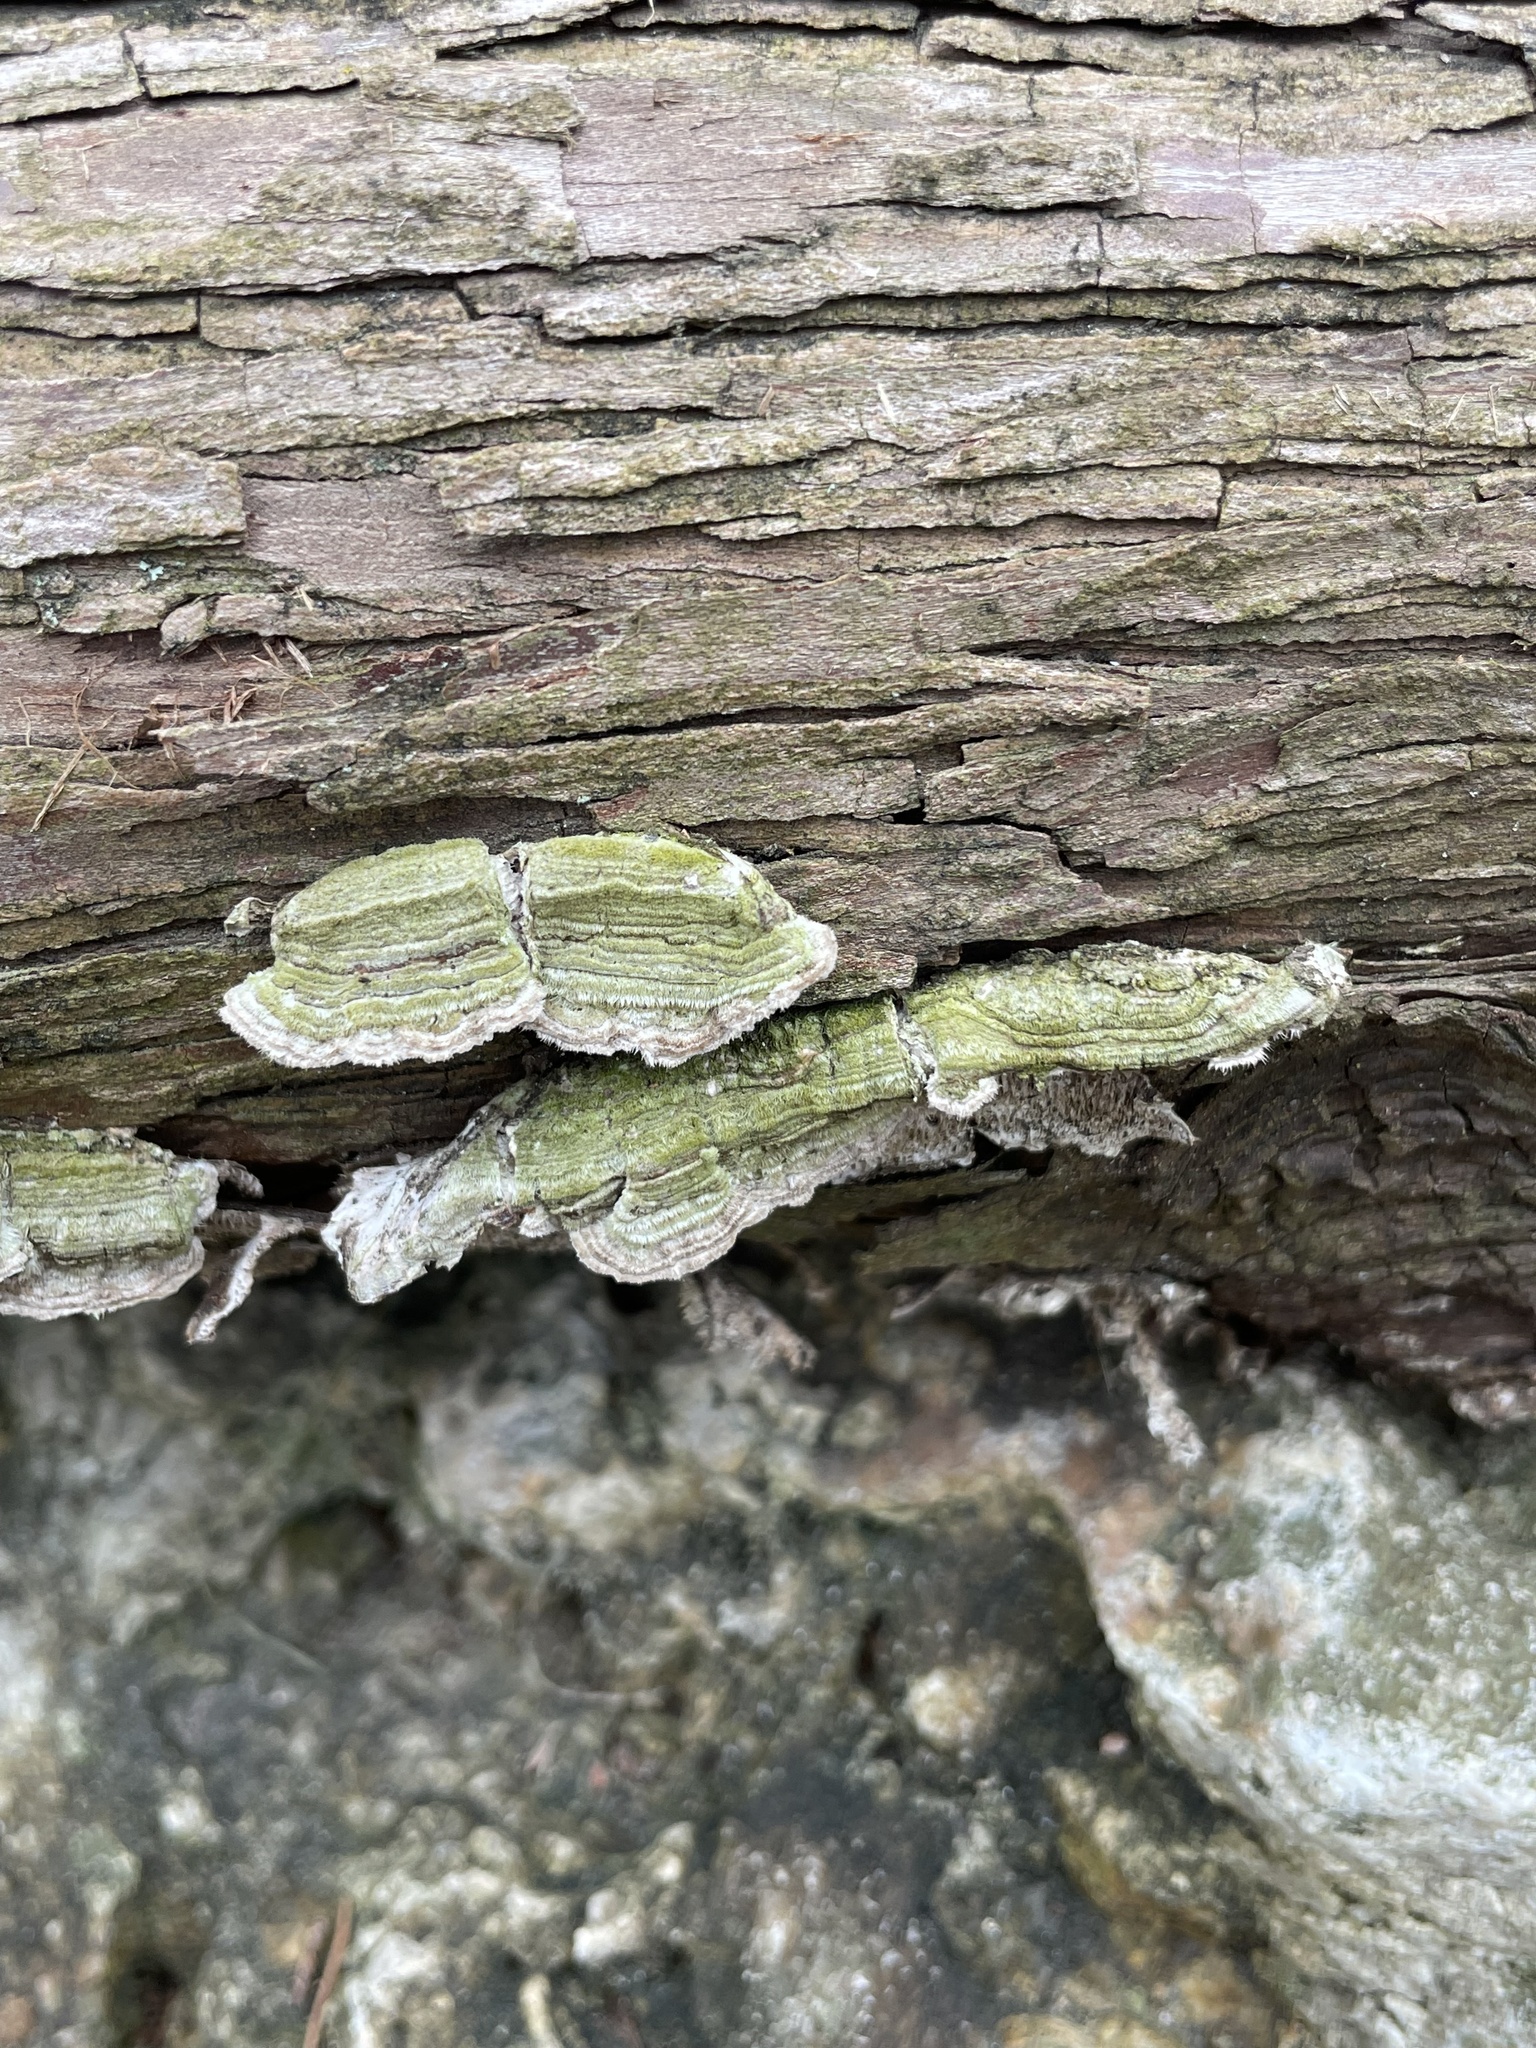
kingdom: Fungi
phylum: Basidiomycota
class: Agaricomycetes
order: Polyporales
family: Polyporaceae
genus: Trametes
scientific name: Trametes villosa
